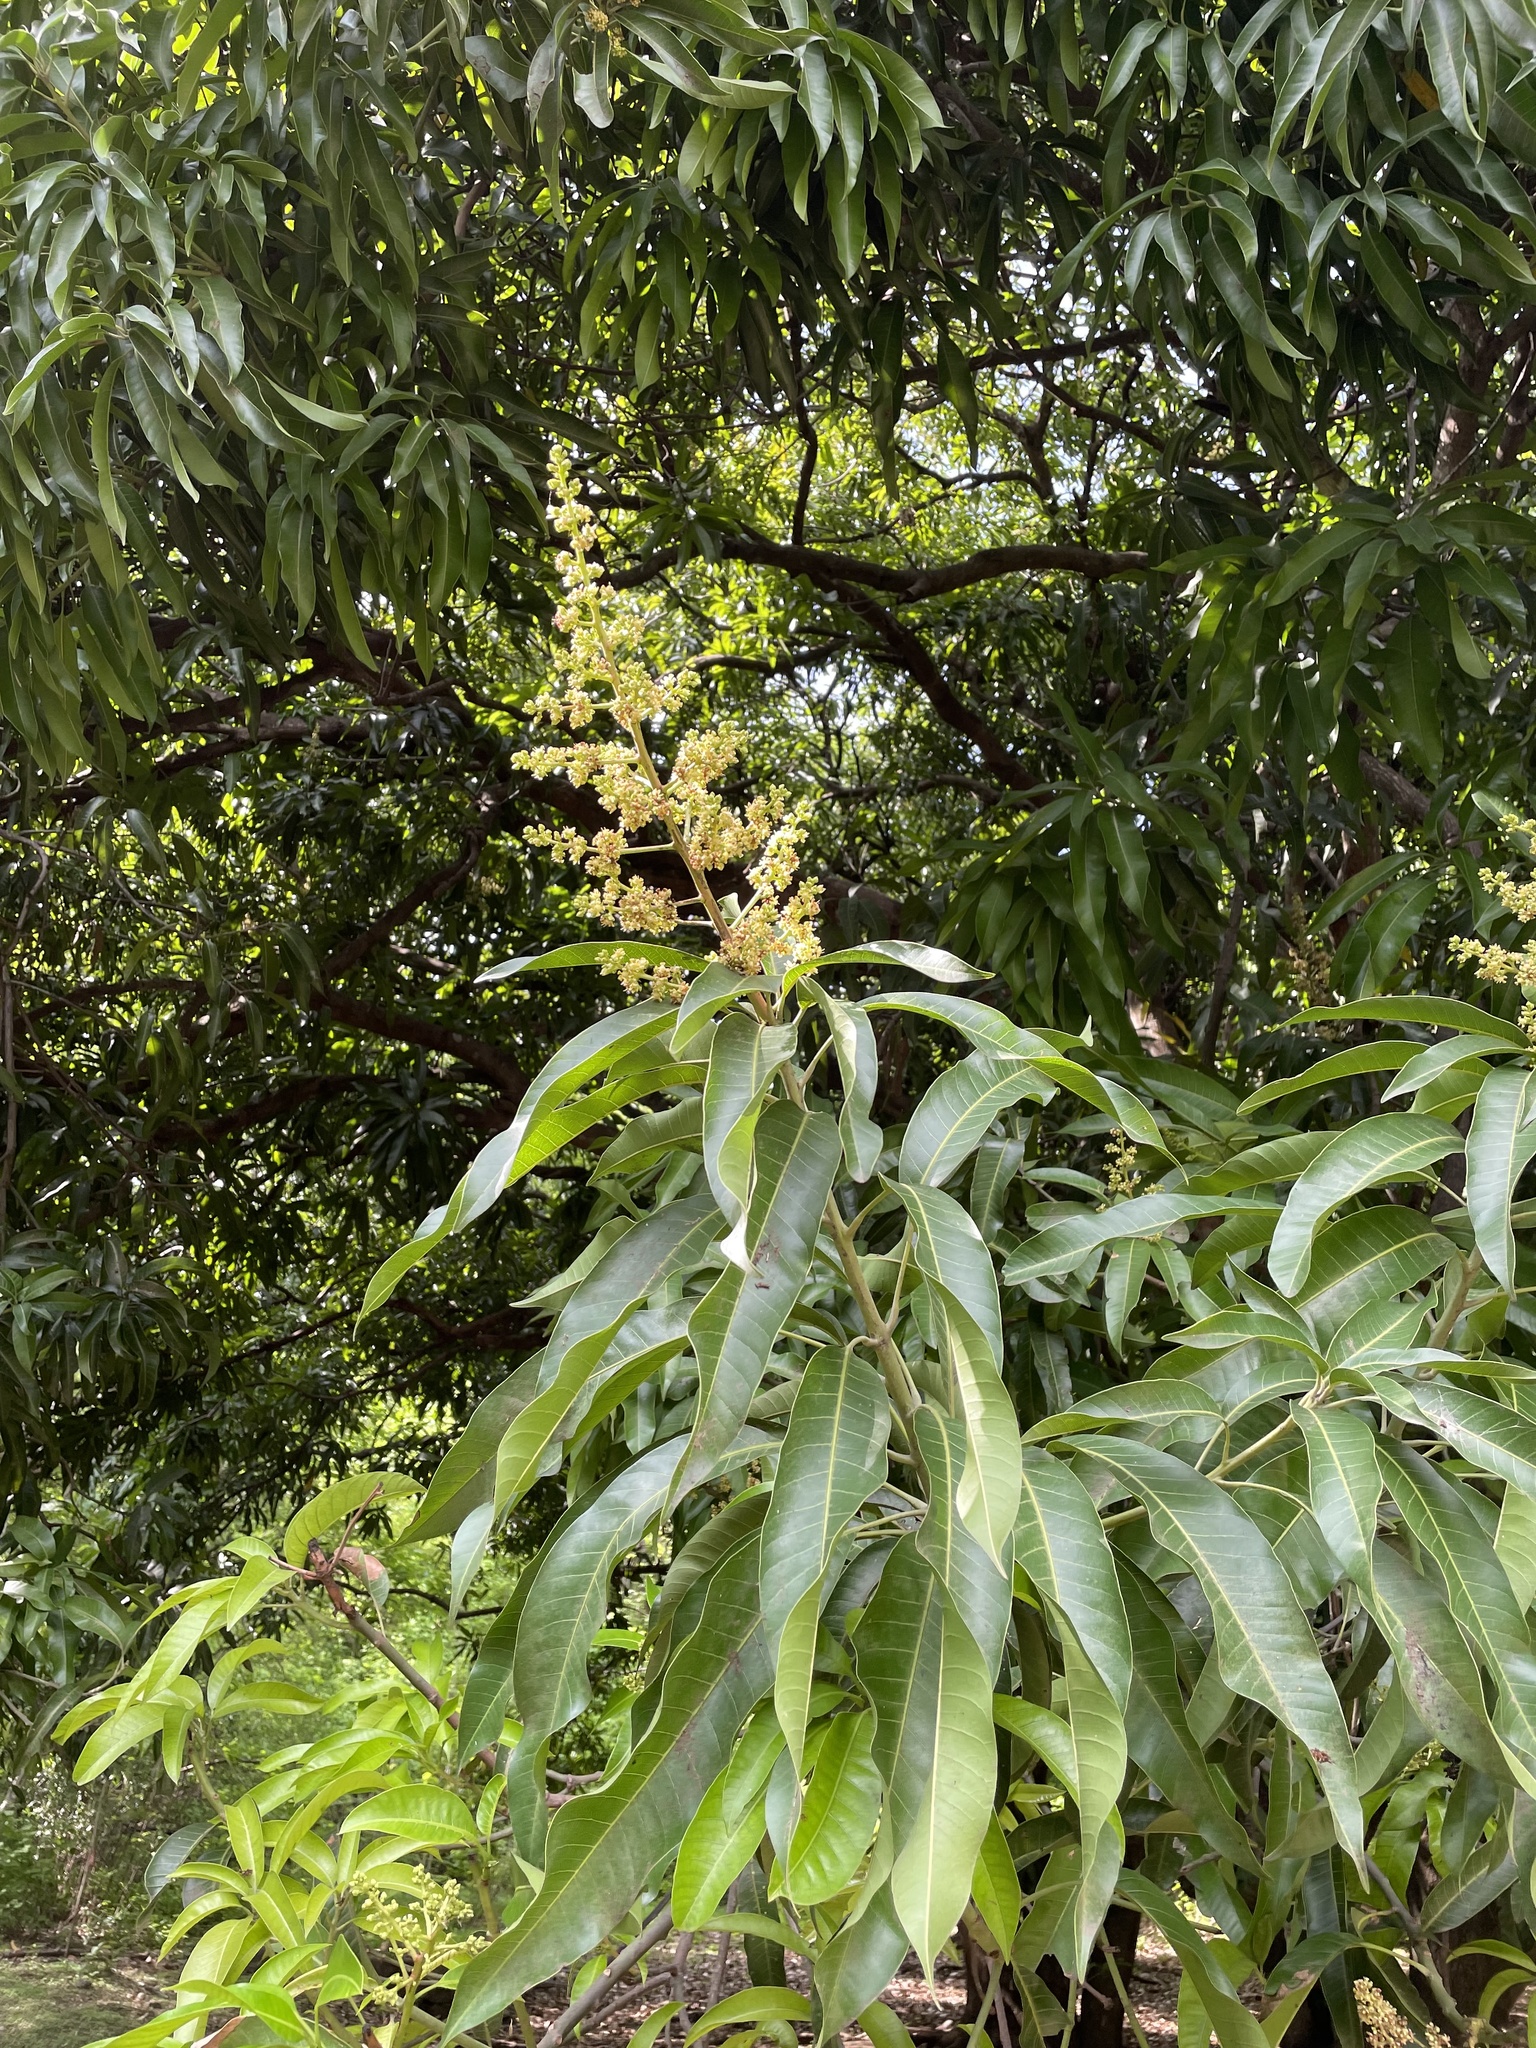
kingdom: Plantae
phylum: Tracheophyta
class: Magnoliopsida
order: Sapindales
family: Anacardiaceae
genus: Mangifera
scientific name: Mangifera indica
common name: Mango
